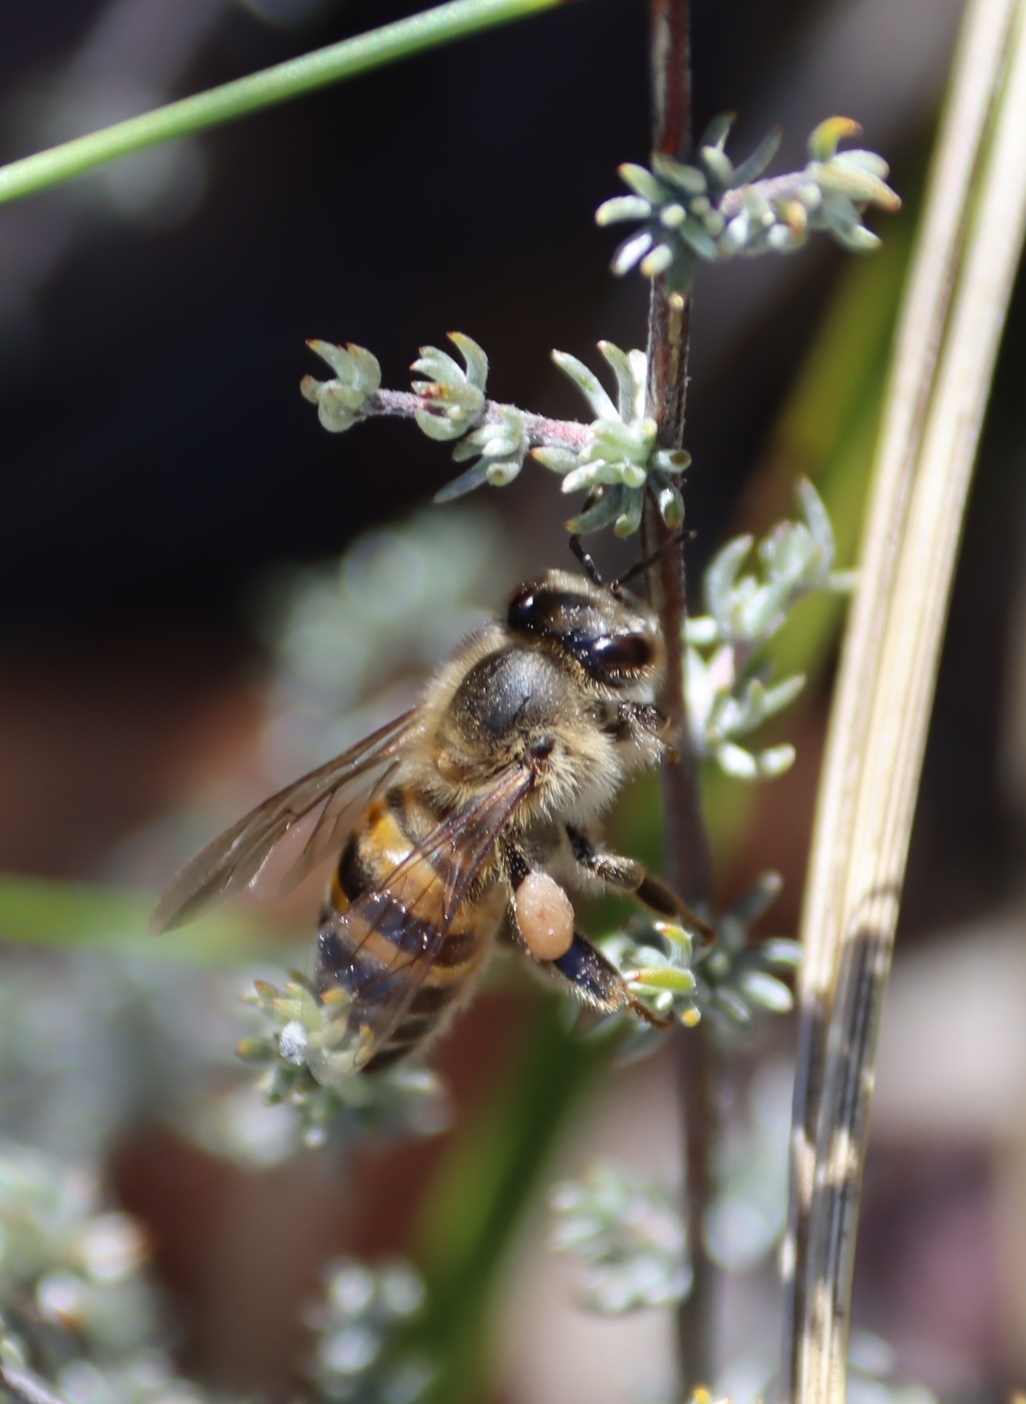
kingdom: Animalia
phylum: Arthropoda
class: Insecta
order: Hymenoptera
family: Apidae
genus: Apis
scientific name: Apis mellifera
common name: Honey bee
